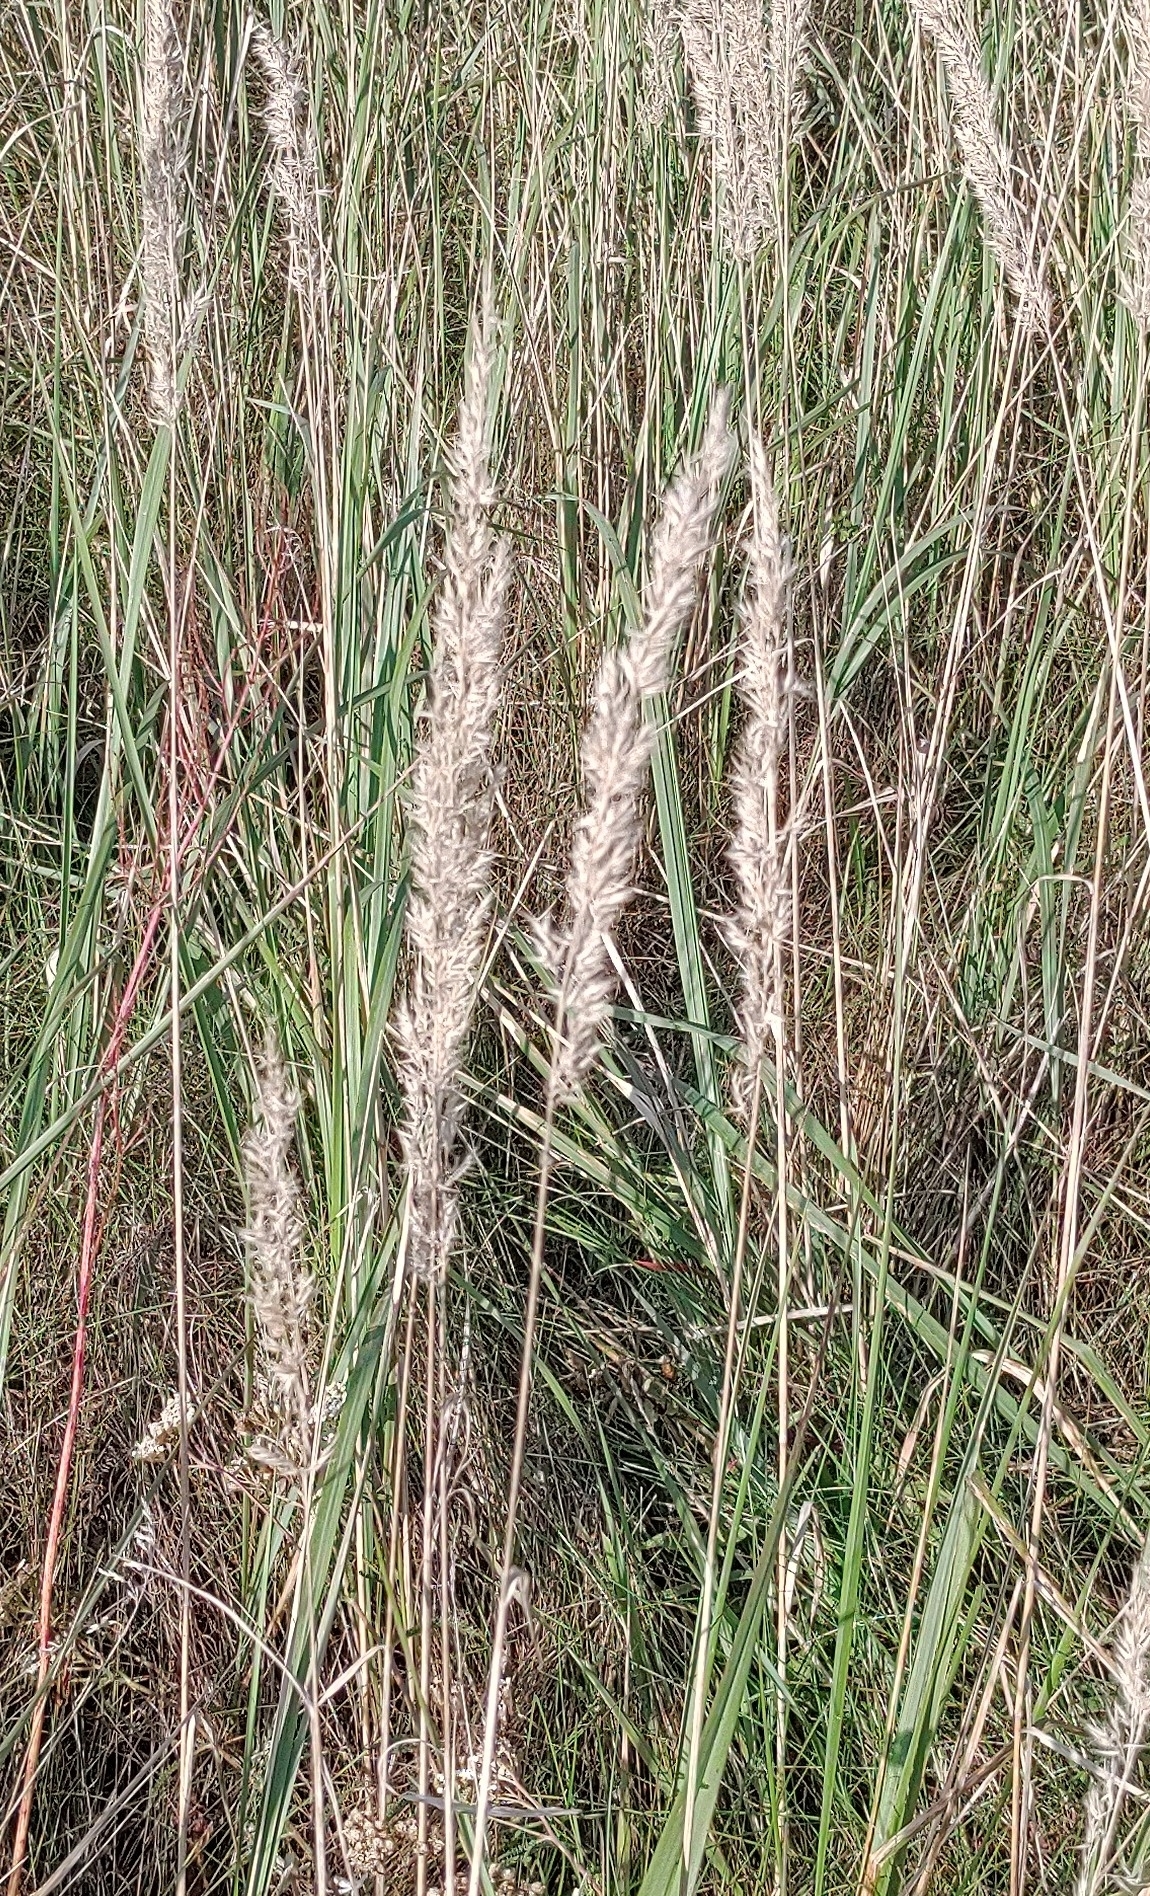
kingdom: Plantae
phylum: Tracheophyta
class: Liliopsida
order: Poales
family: Poaceae
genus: Calamagrostis
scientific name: Calamagrostis epigejos
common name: Wood small-reed
